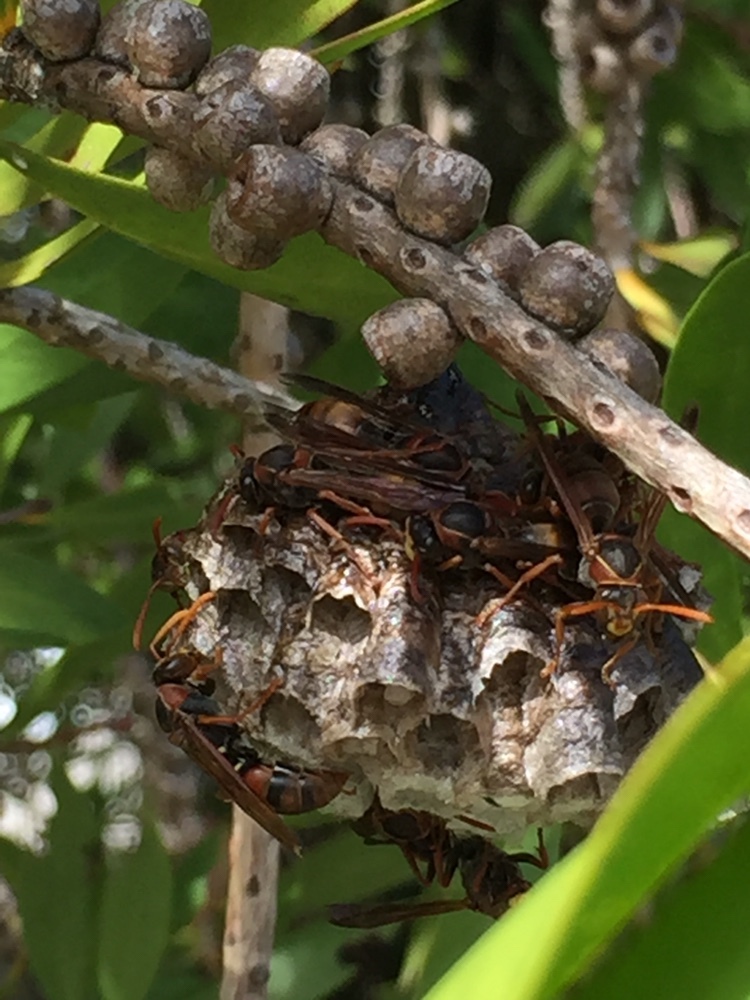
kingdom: Animalia
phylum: Arthropoda
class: Insecta
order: Hymenoptera
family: Eumenidae
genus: Polistes
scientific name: Polistes humilis
